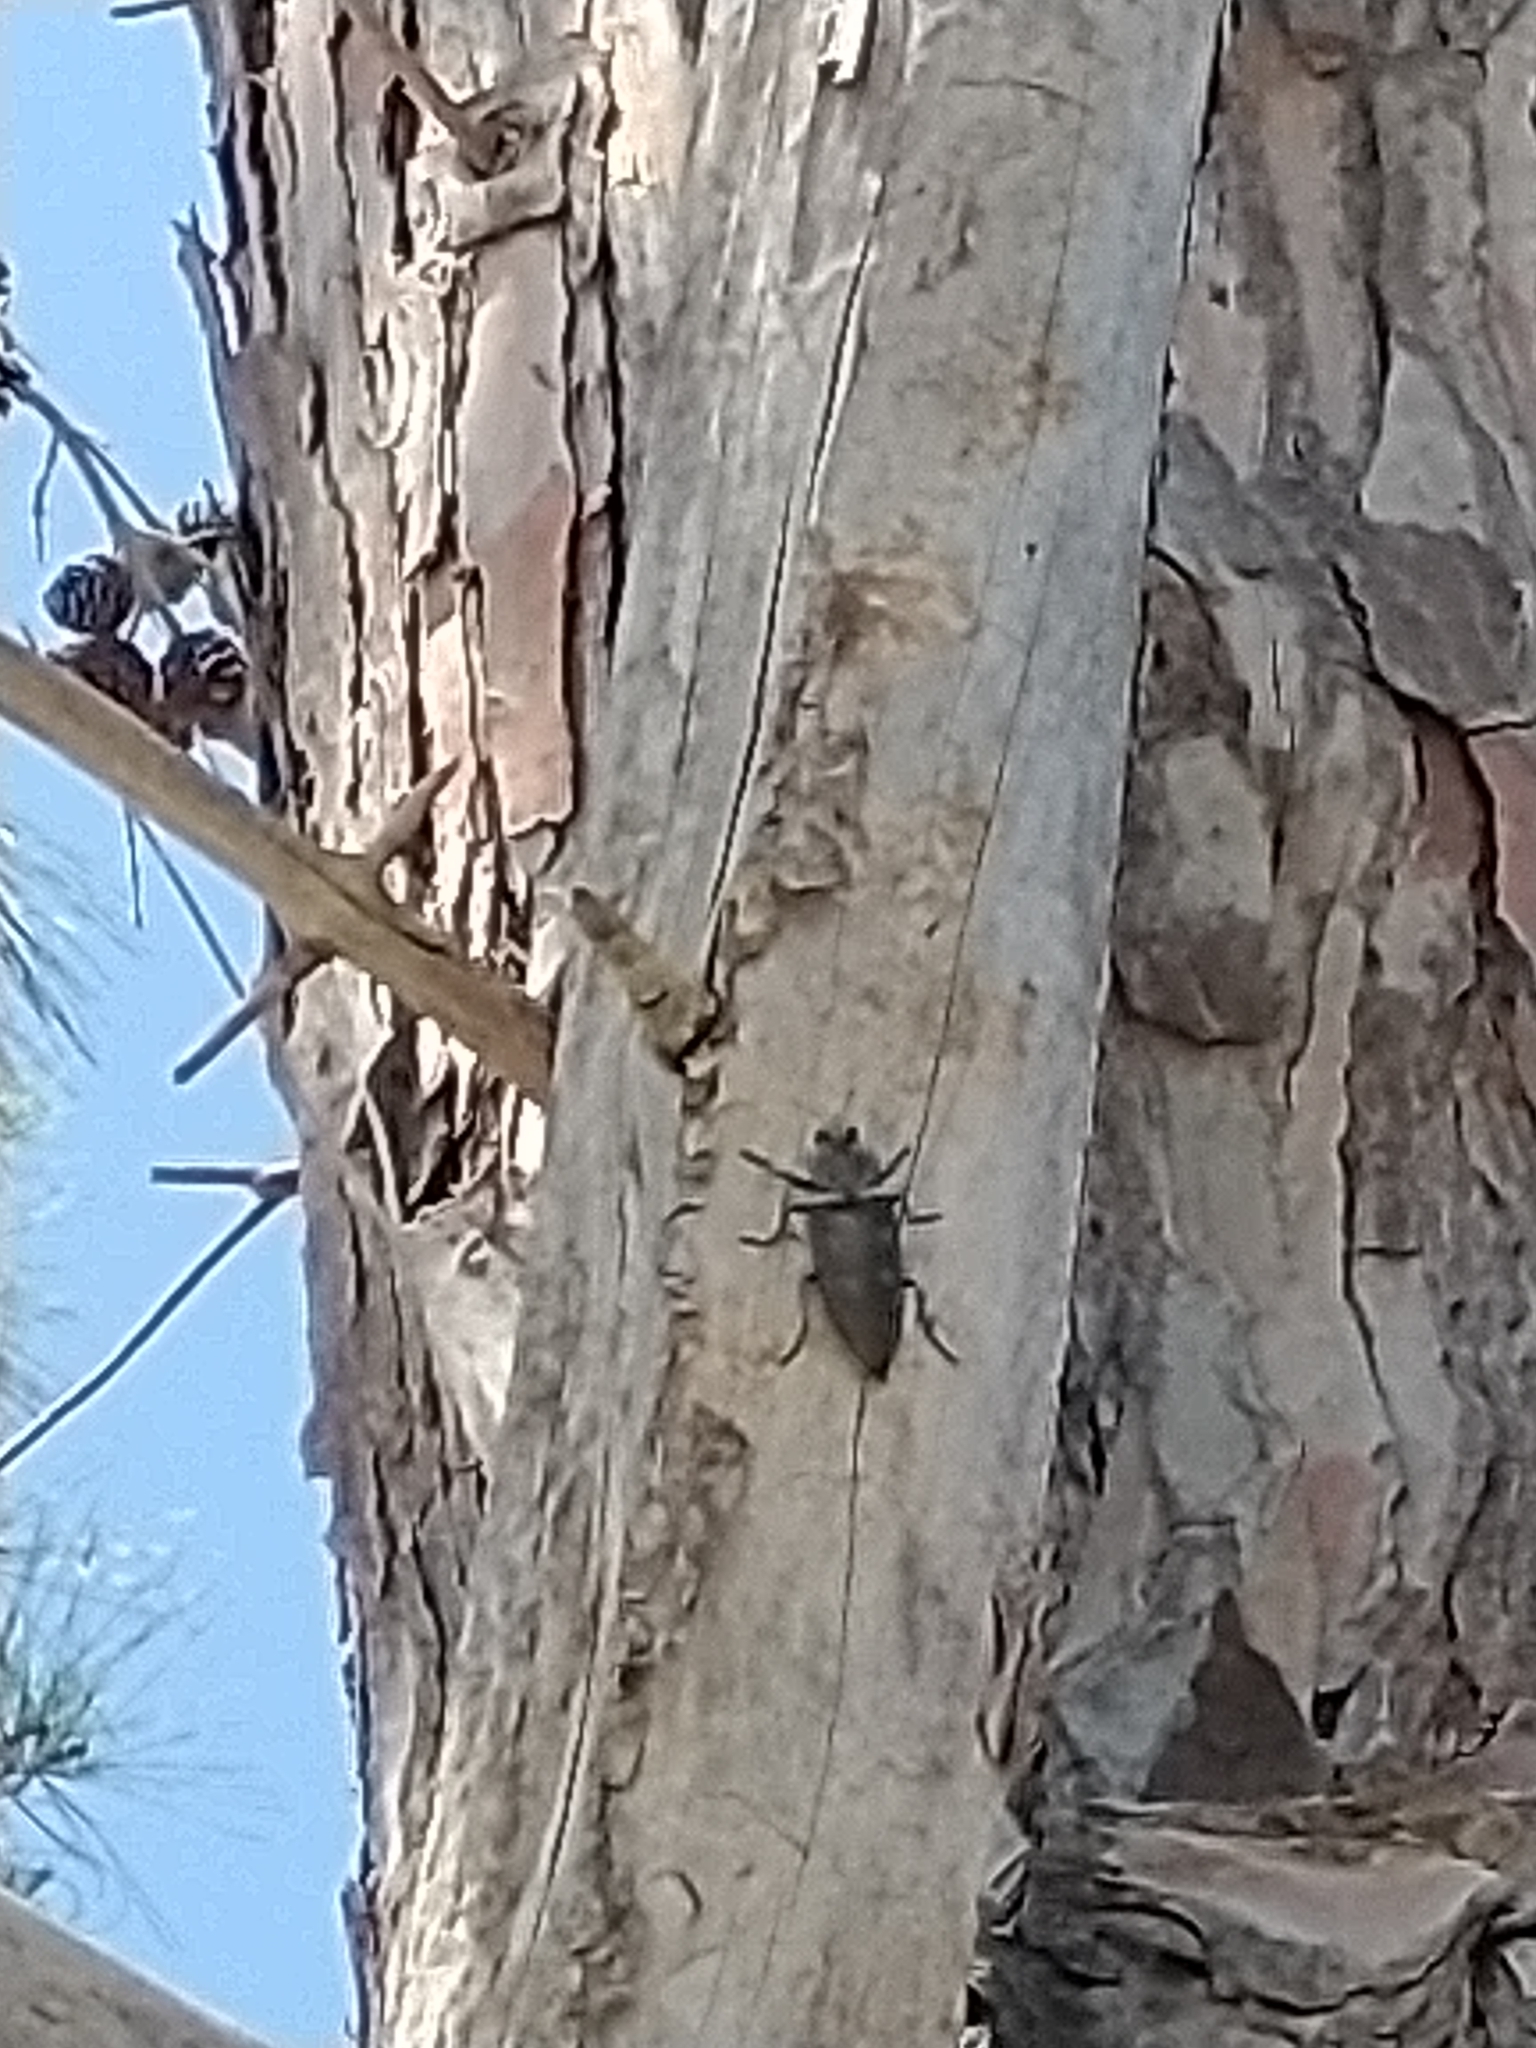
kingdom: Animalia
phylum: Arthropoda
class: Insecta
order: Coleoptera
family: Buprestidae
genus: Chalcophora
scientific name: Chalcophora detrita
